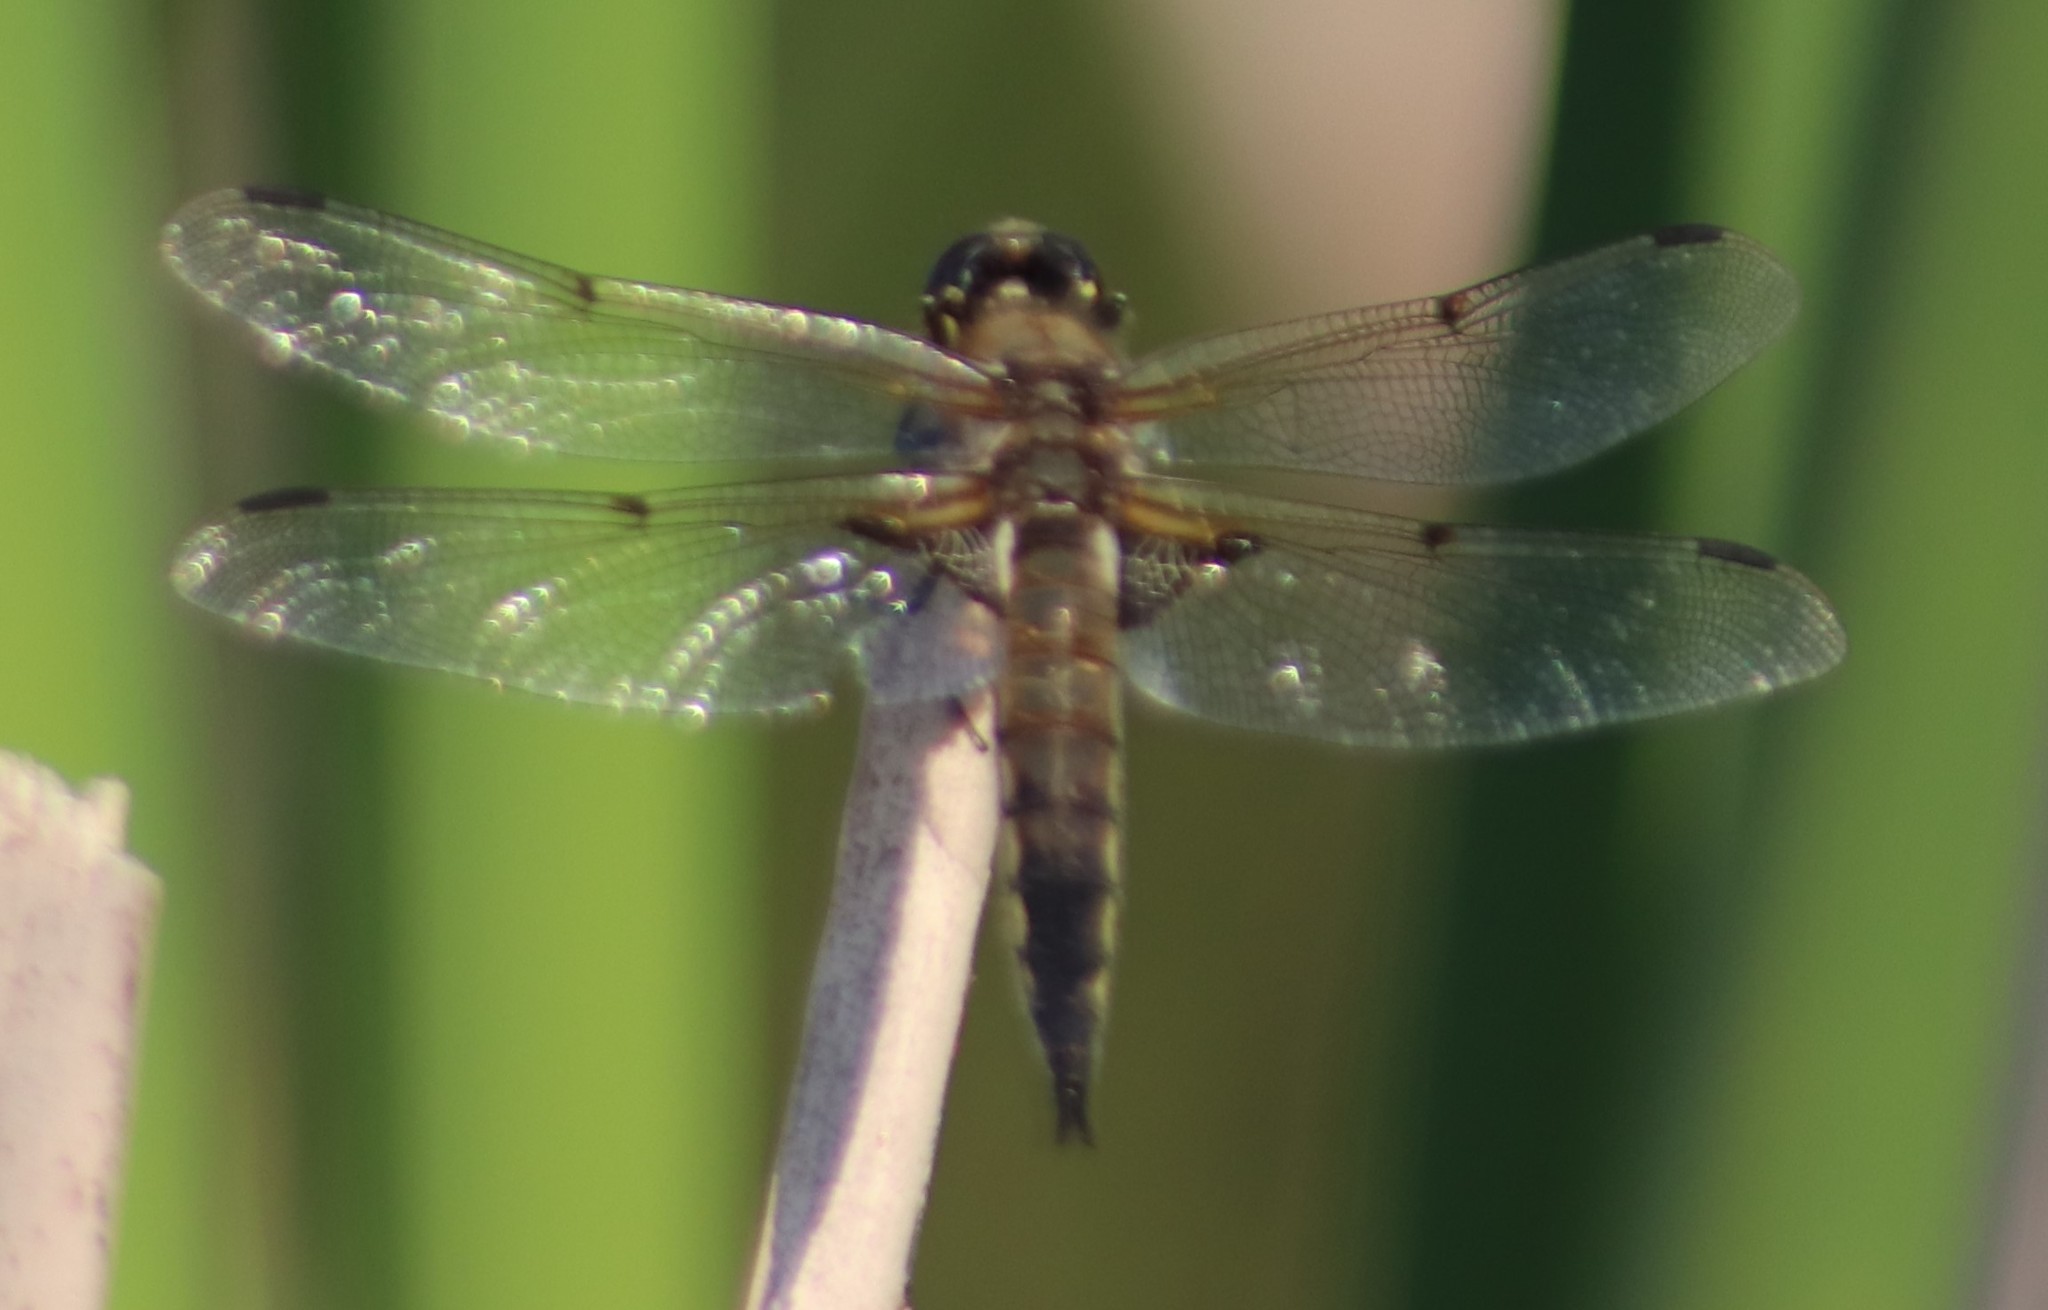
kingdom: Animalia
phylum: Arthropoda
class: Insecta
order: Odonata
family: Libellulidae
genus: Libellula
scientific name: Libellula quadrimaculata
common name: Four-spotted chaser
